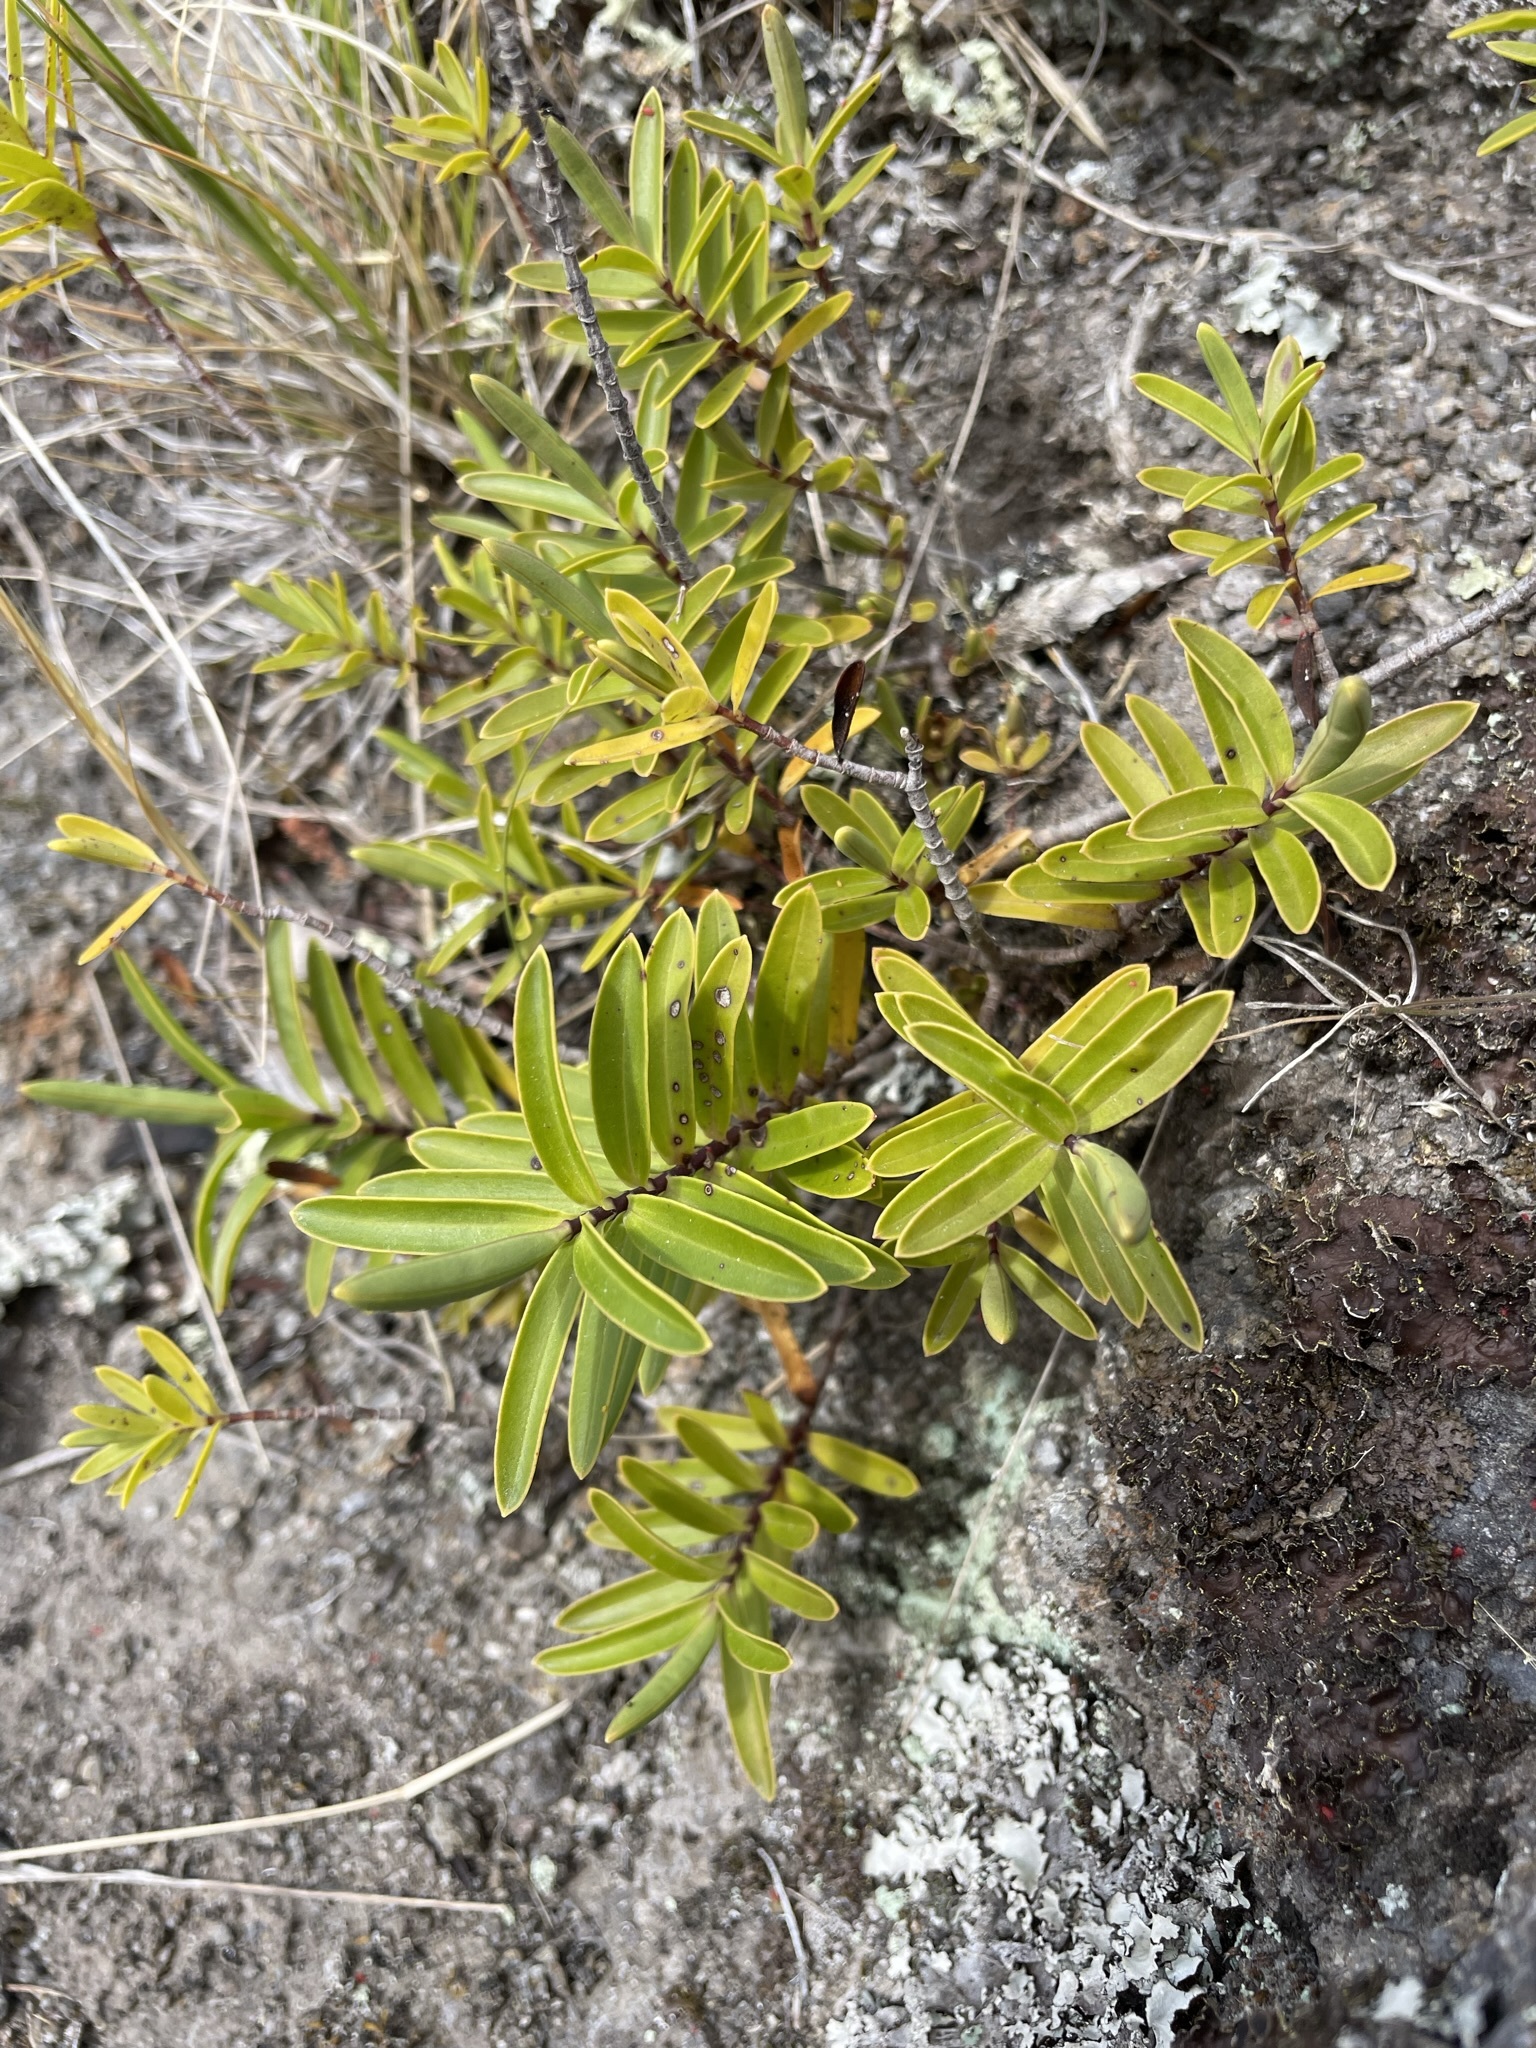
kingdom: Plantae
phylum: Tracheophyta
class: Magnoliopsida
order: Lamiales
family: Plantaginaceae
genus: Veronica
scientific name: Veronica strictissima
